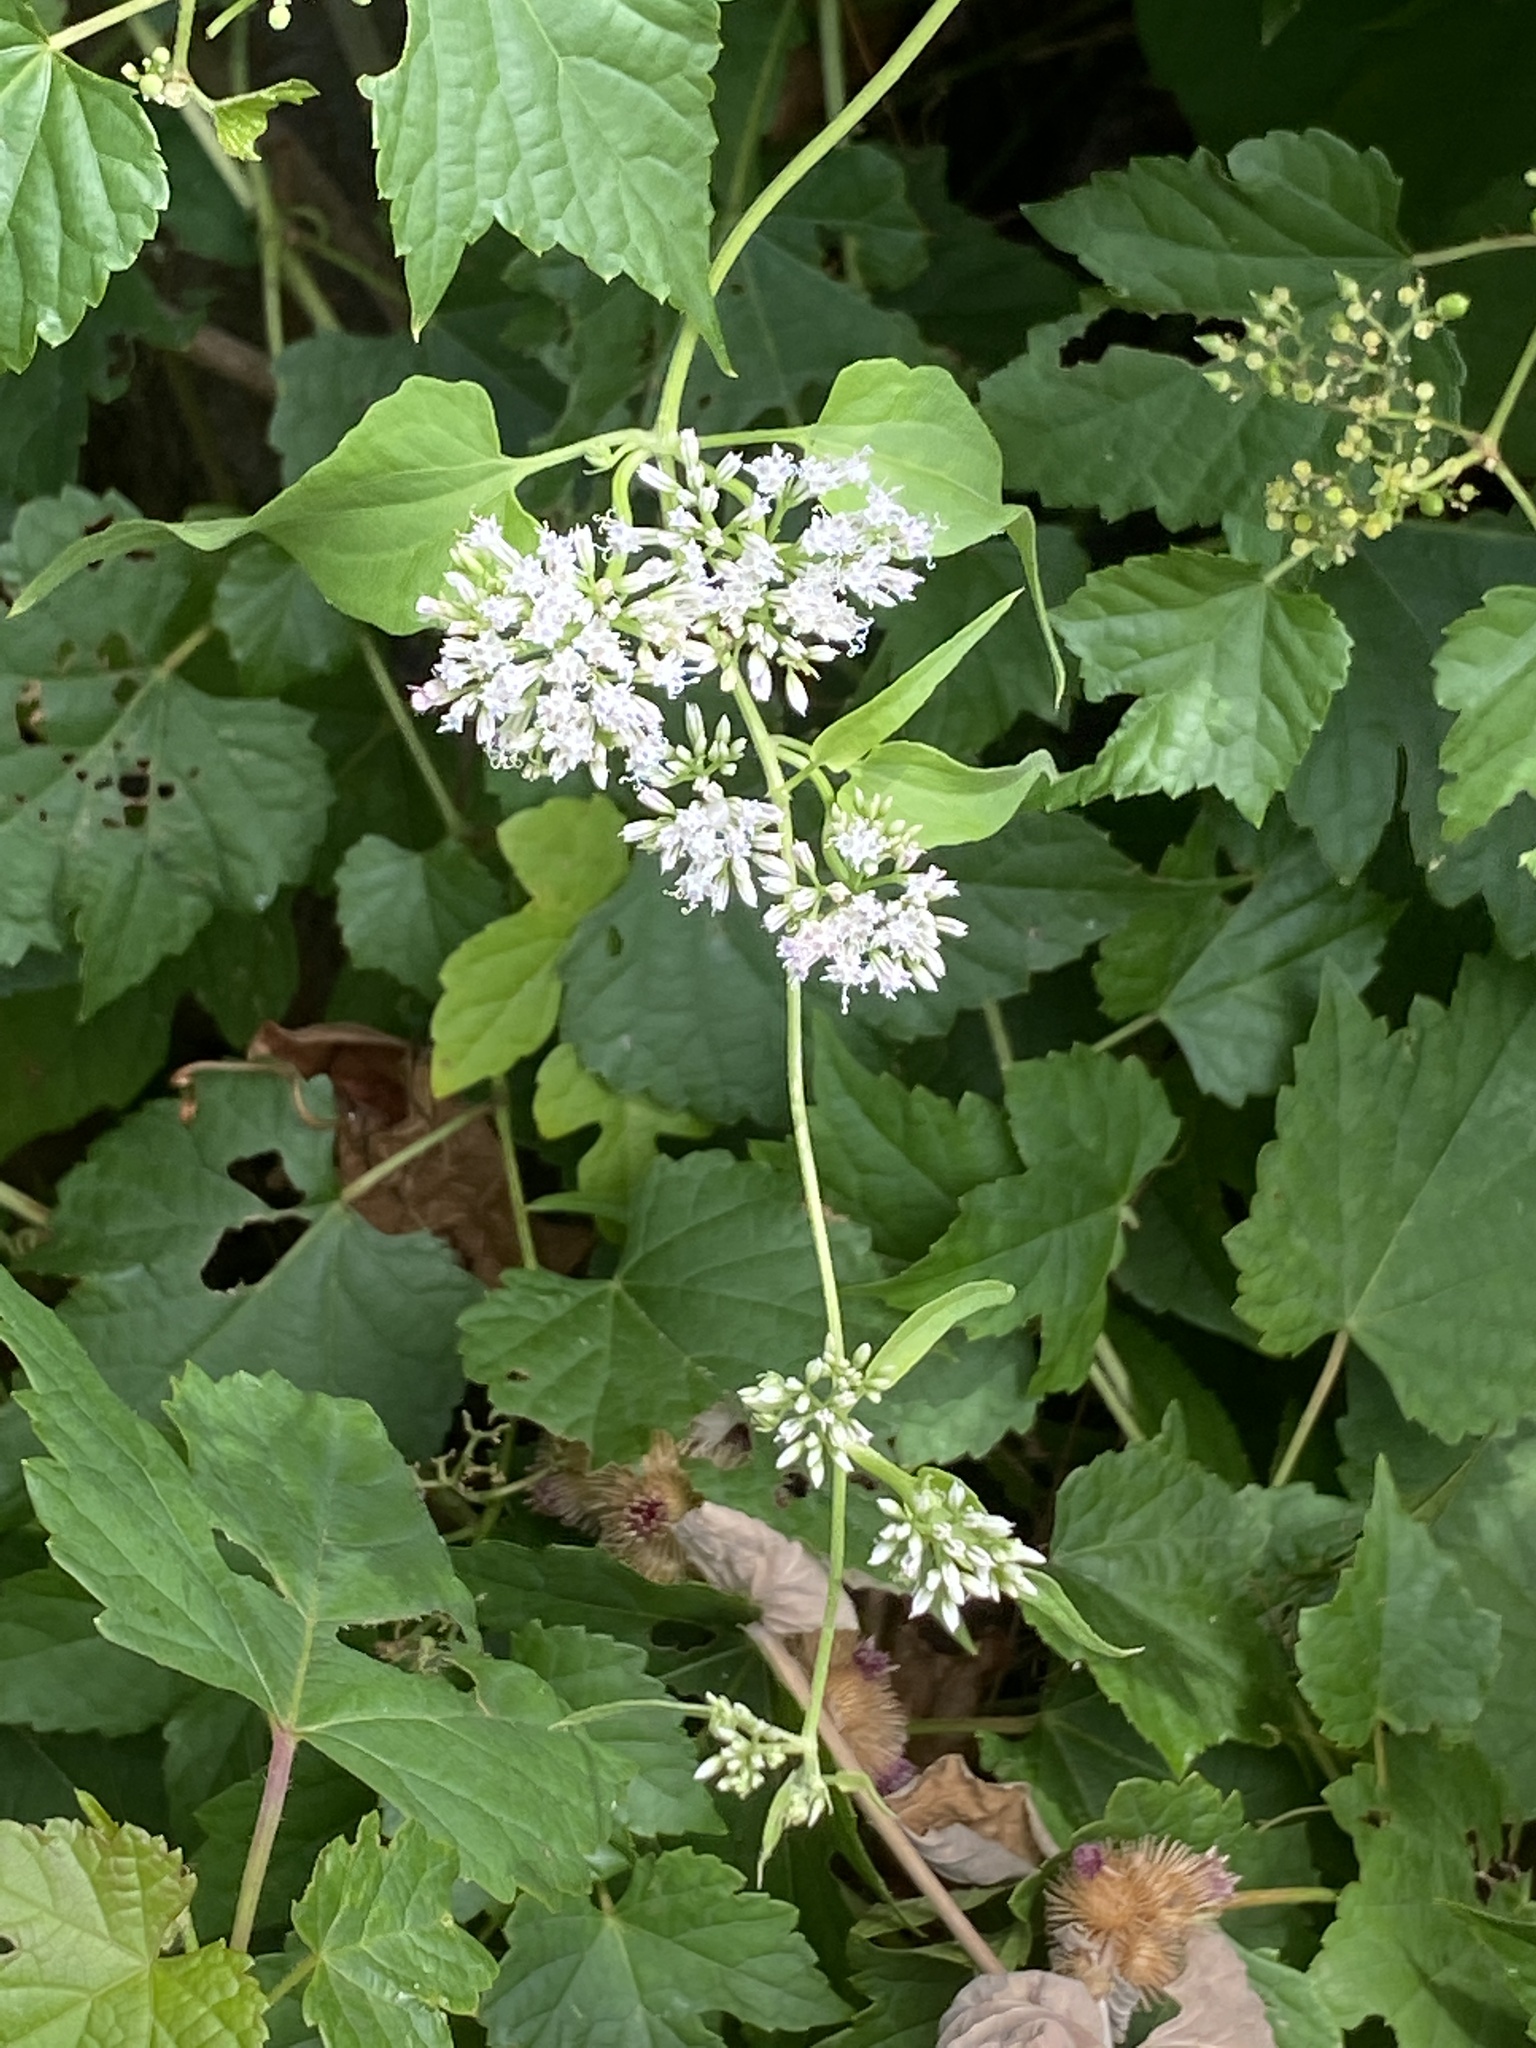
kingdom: Plantae
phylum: Tracheophyta
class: Magnoliopsida
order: Asterales
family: Asteraceae
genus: Mikania
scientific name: Mikania scandens
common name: Climbing hempvine
